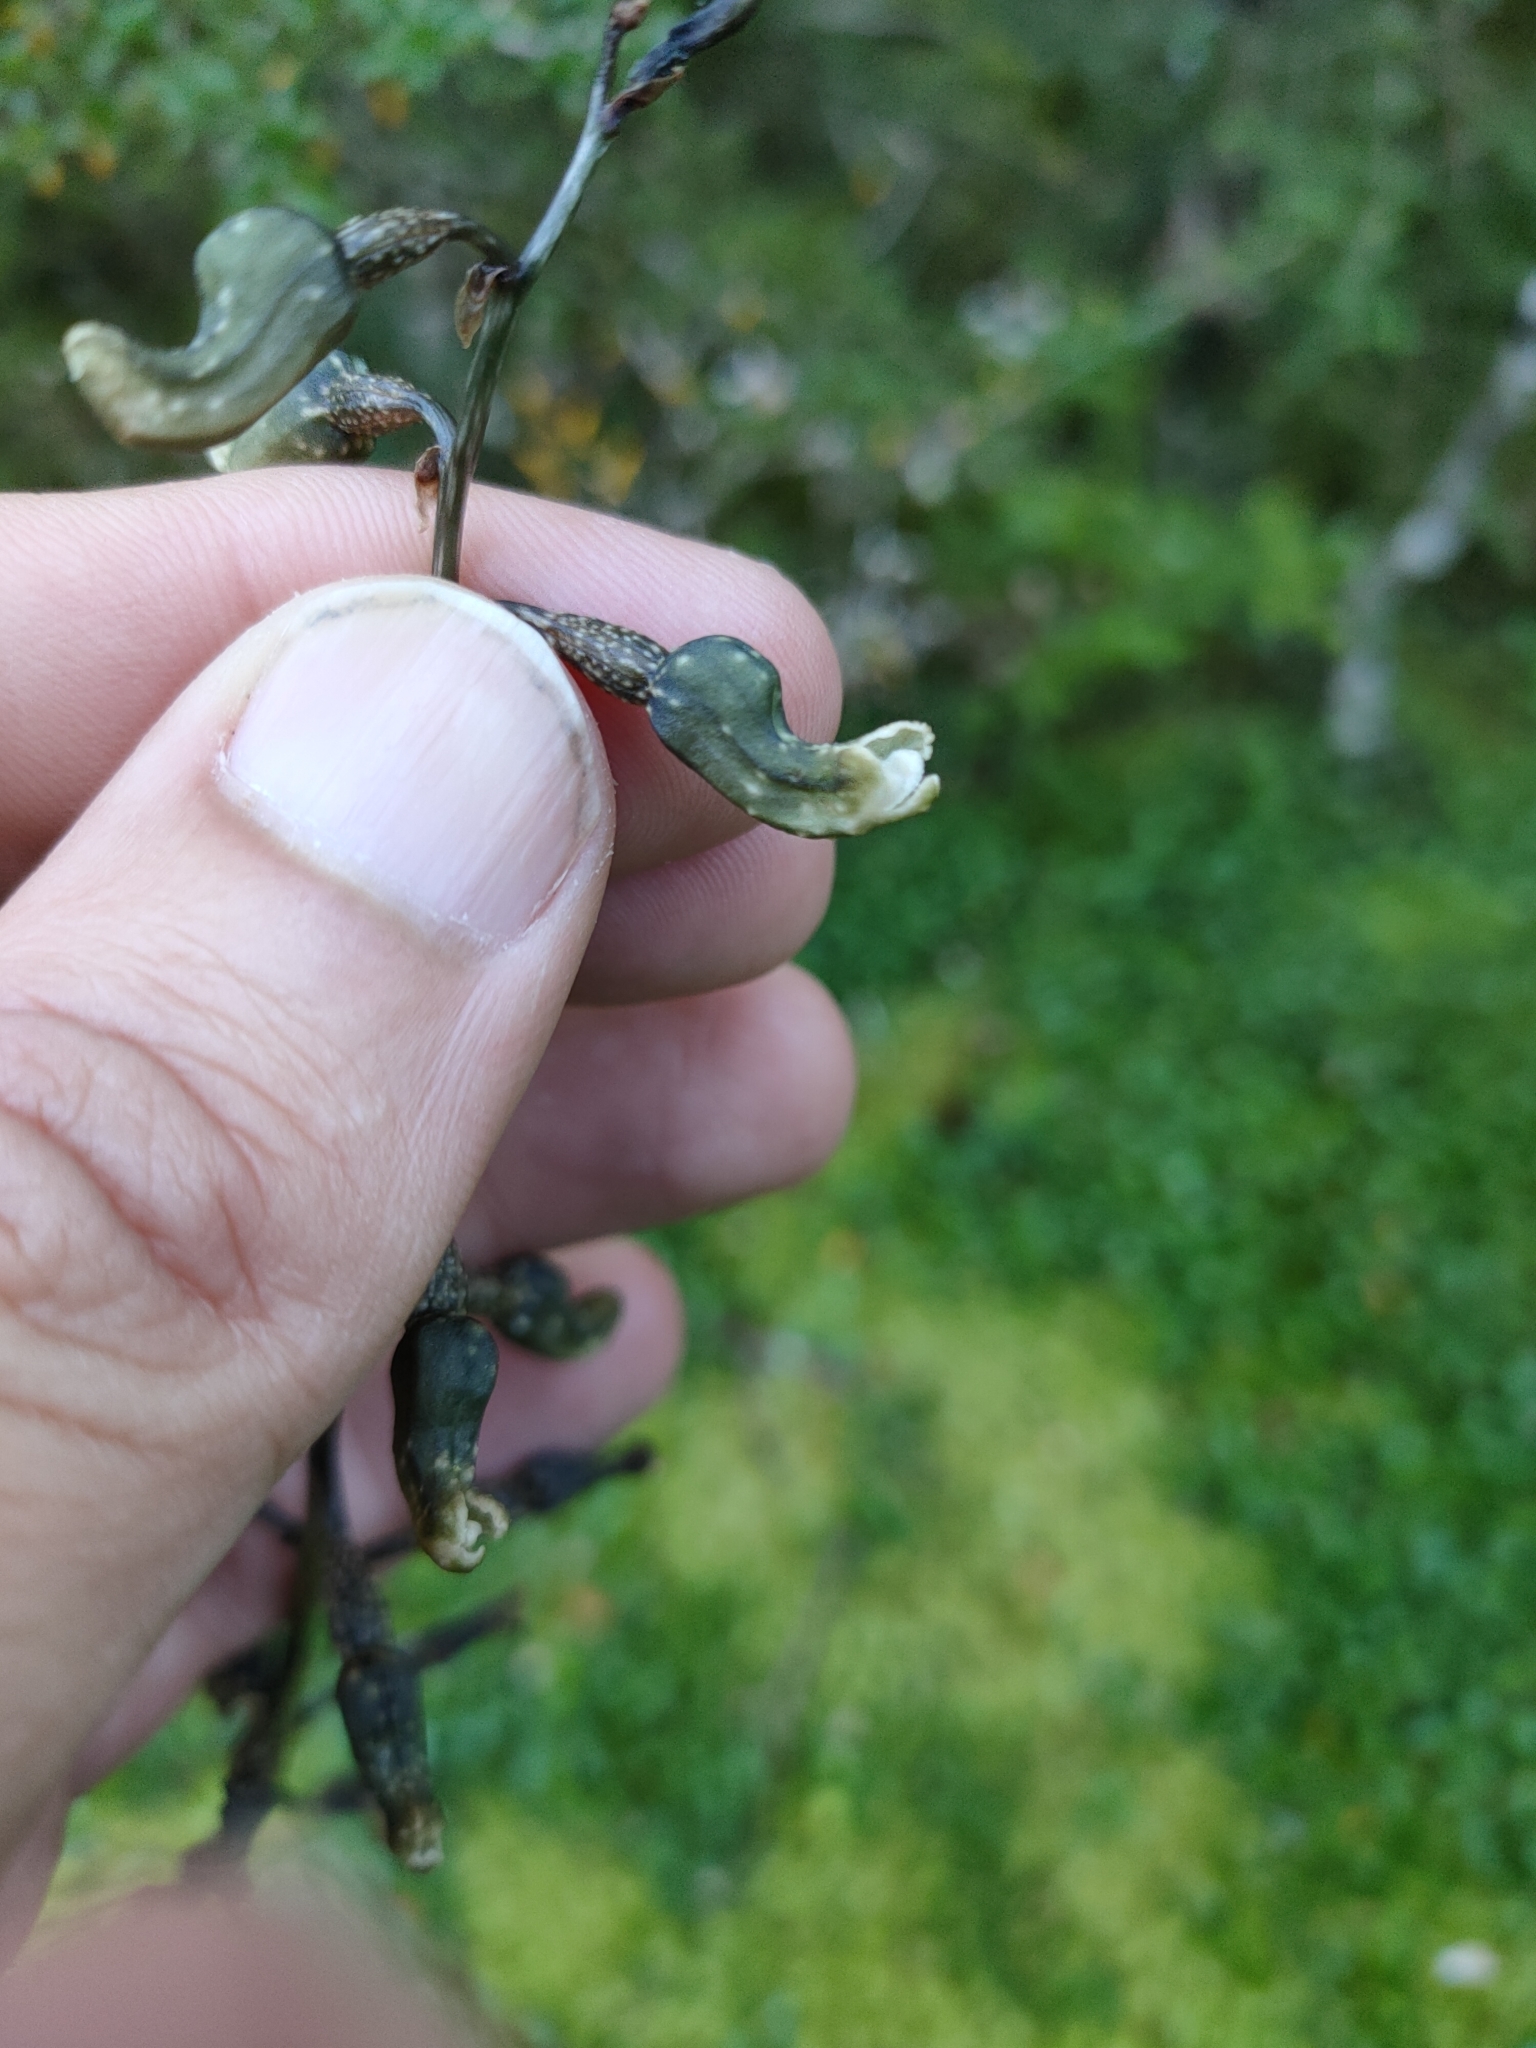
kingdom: Plantae
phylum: Tracheophyta
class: Liliopsida
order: Asparagales
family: Orchidaceae
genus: Gastrodia
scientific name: Gastrodia cunninghamii
